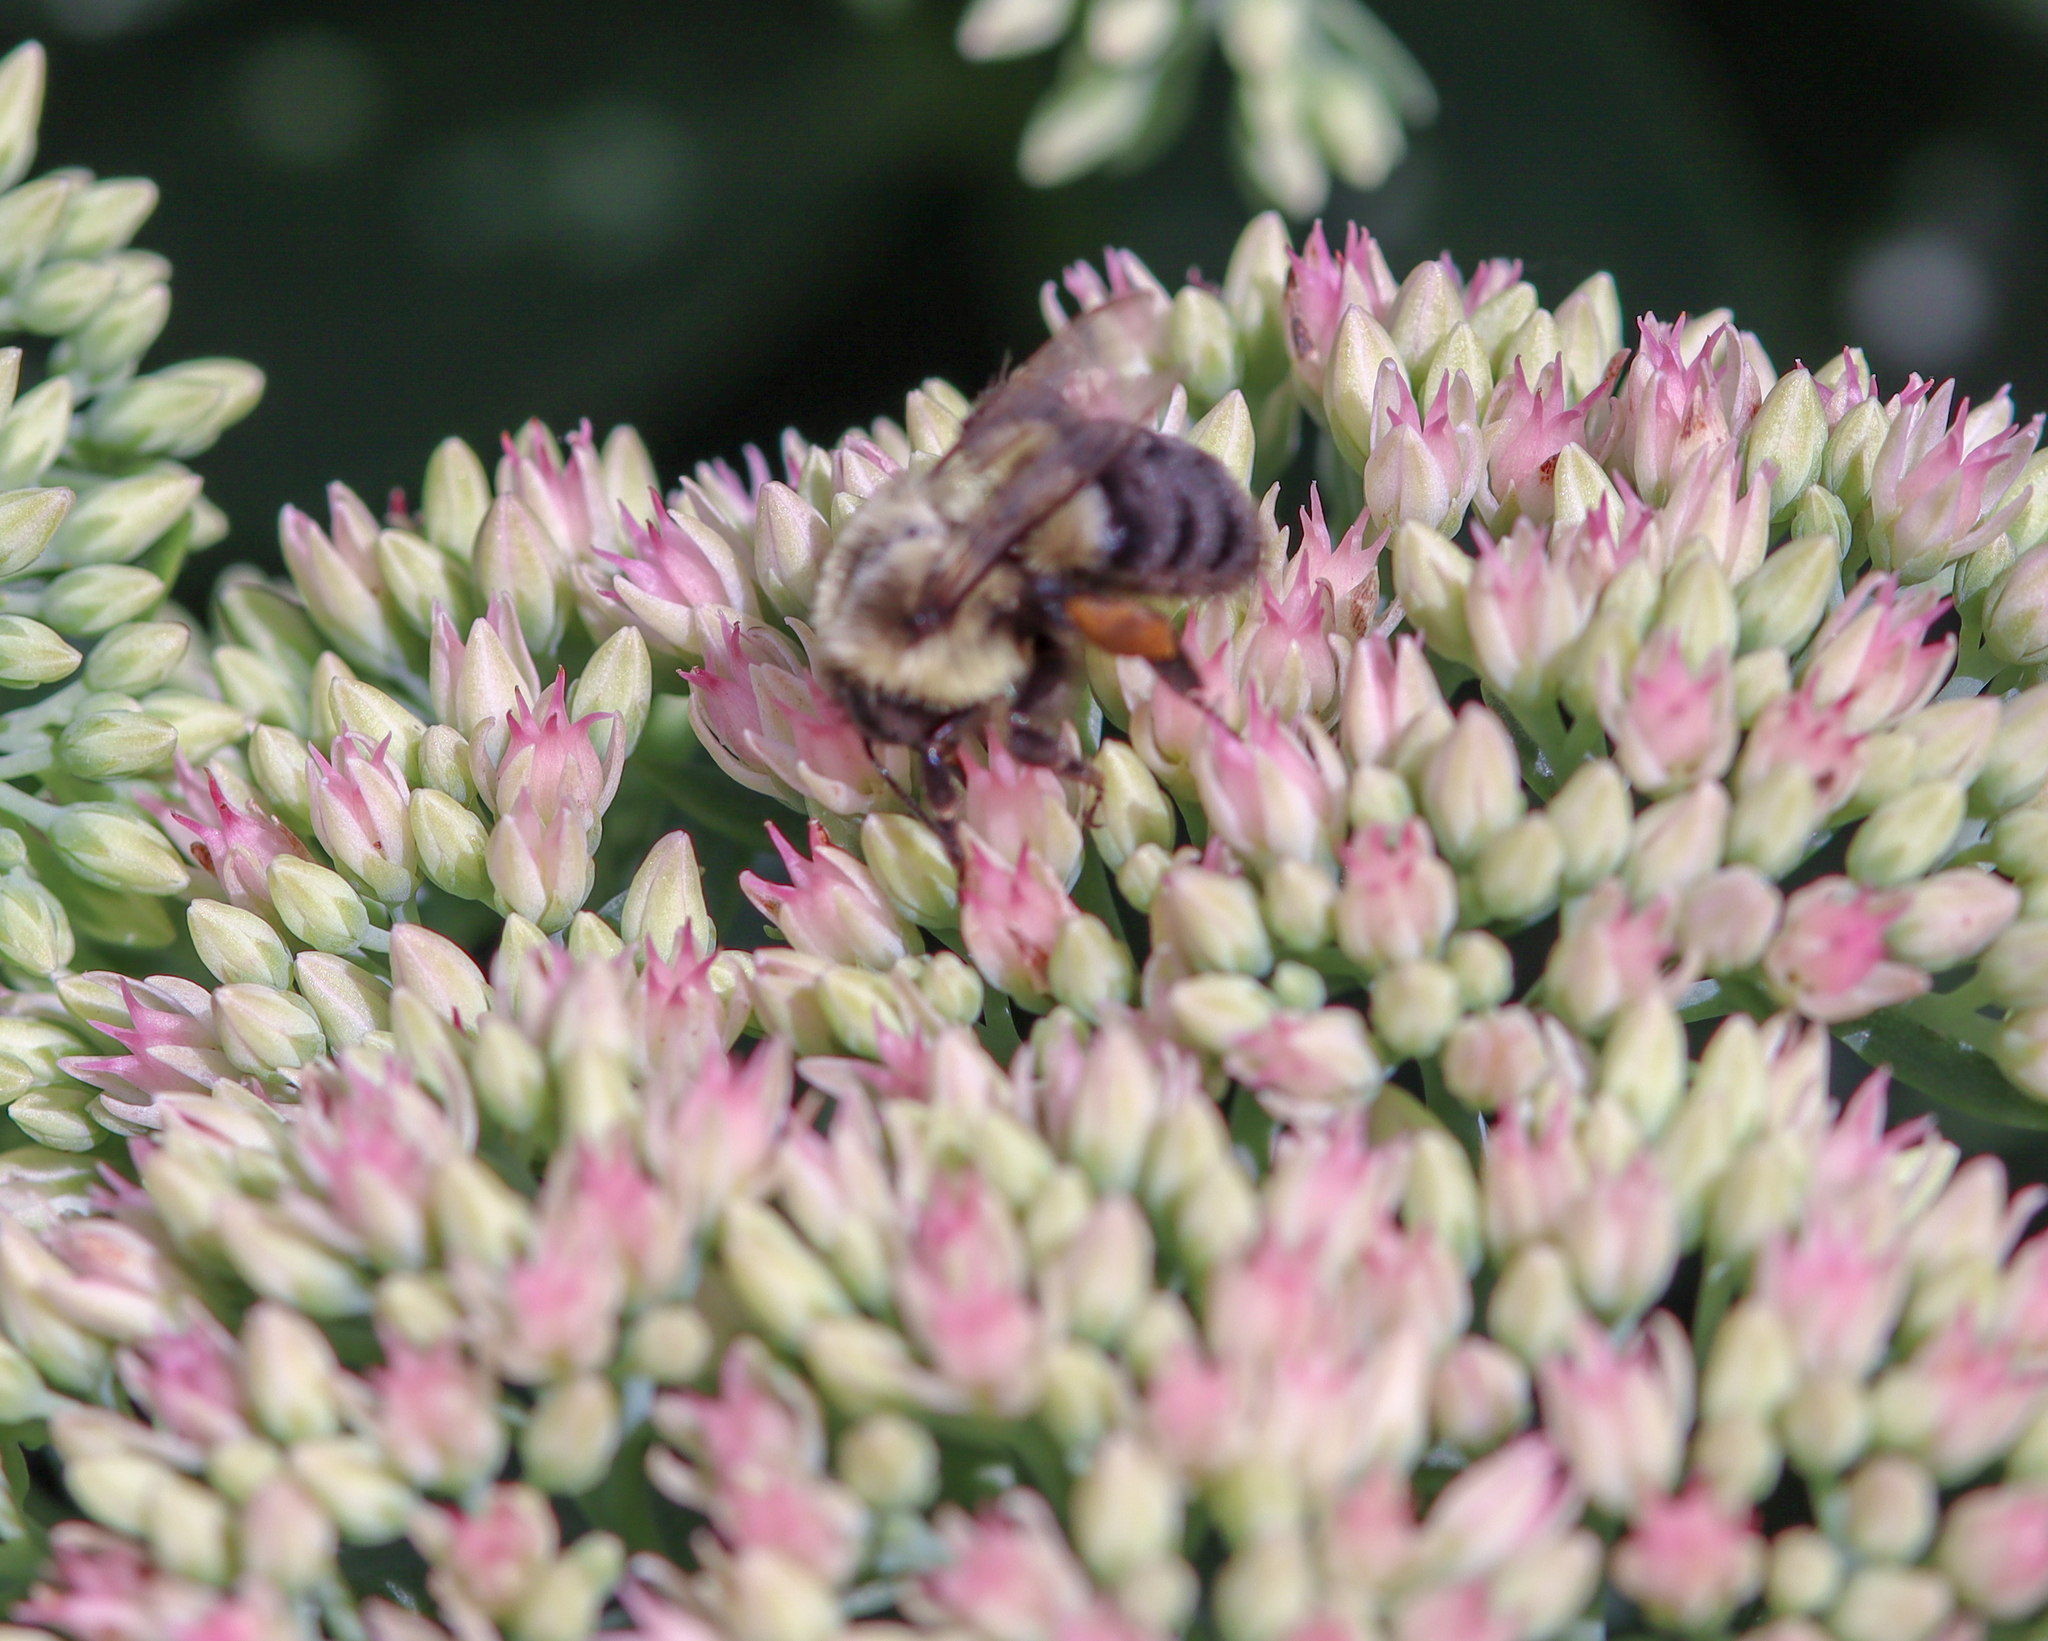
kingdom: Animalia
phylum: Arthropoda
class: Insecta
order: Hymenoptera
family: Apidae
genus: Bombus
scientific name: Bombus impatiens
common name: Common eastern bumble bee
